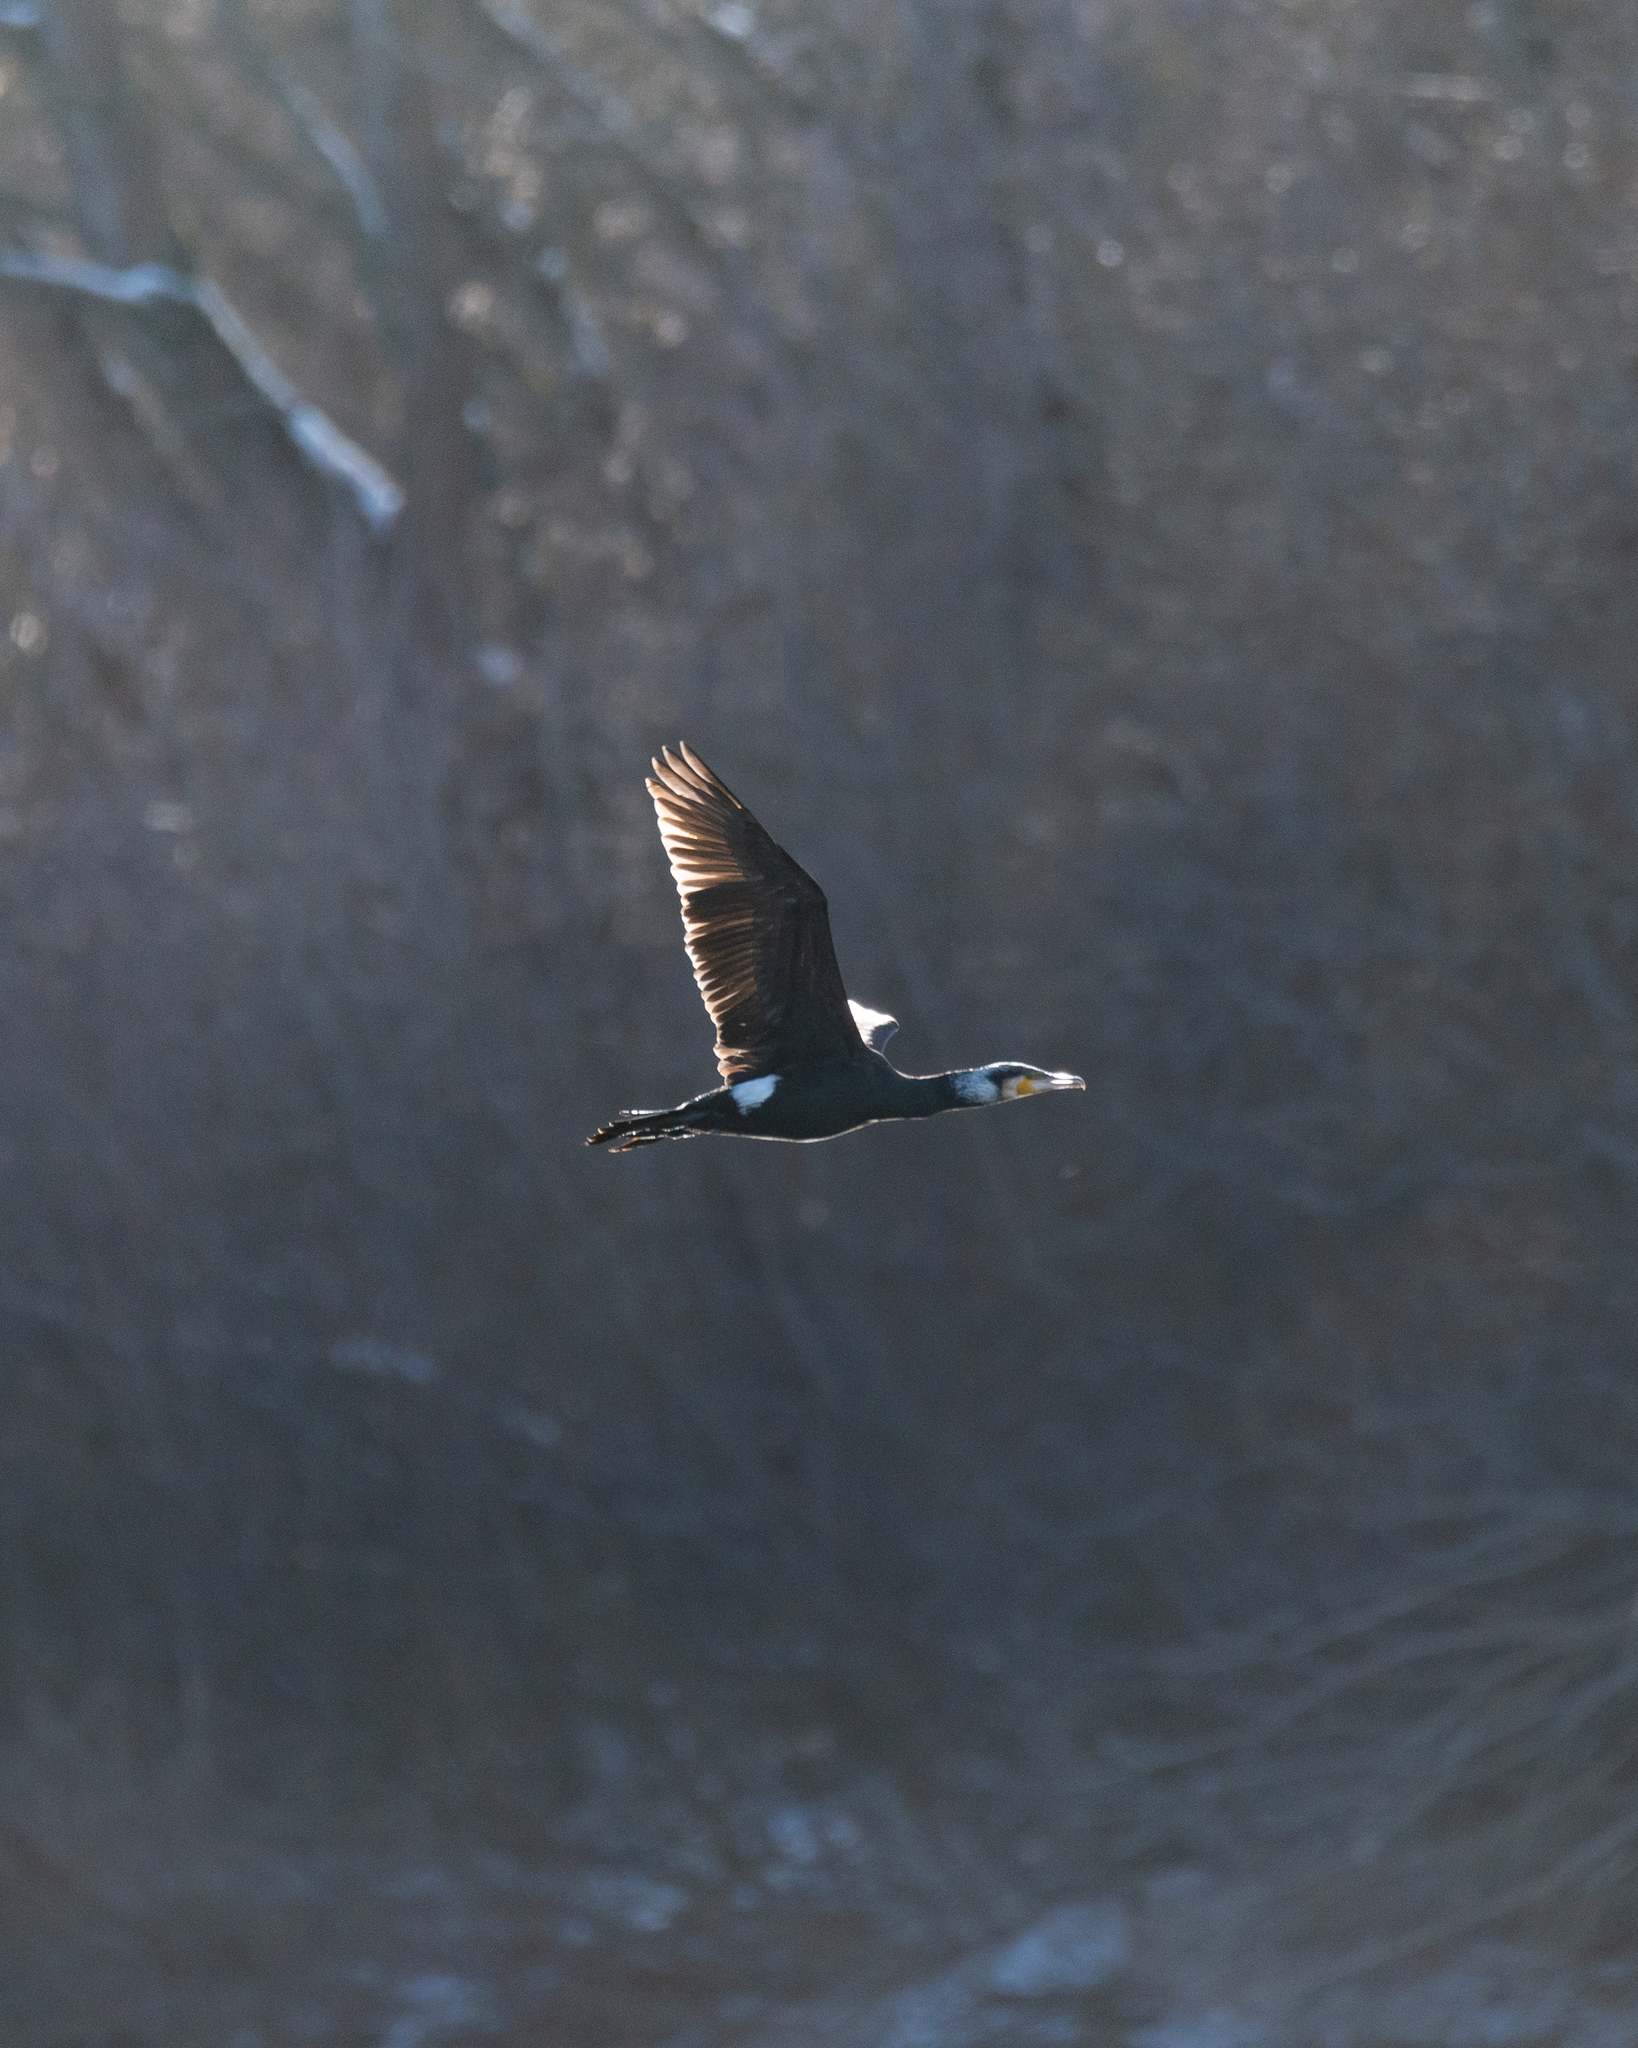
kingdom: Animalia
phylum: Chordata
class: Aves
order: Suliformes
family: Phalacrocoracidae
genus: Phalacrocorax
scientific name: Phalacrocorax carbo
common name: Great cormorant
